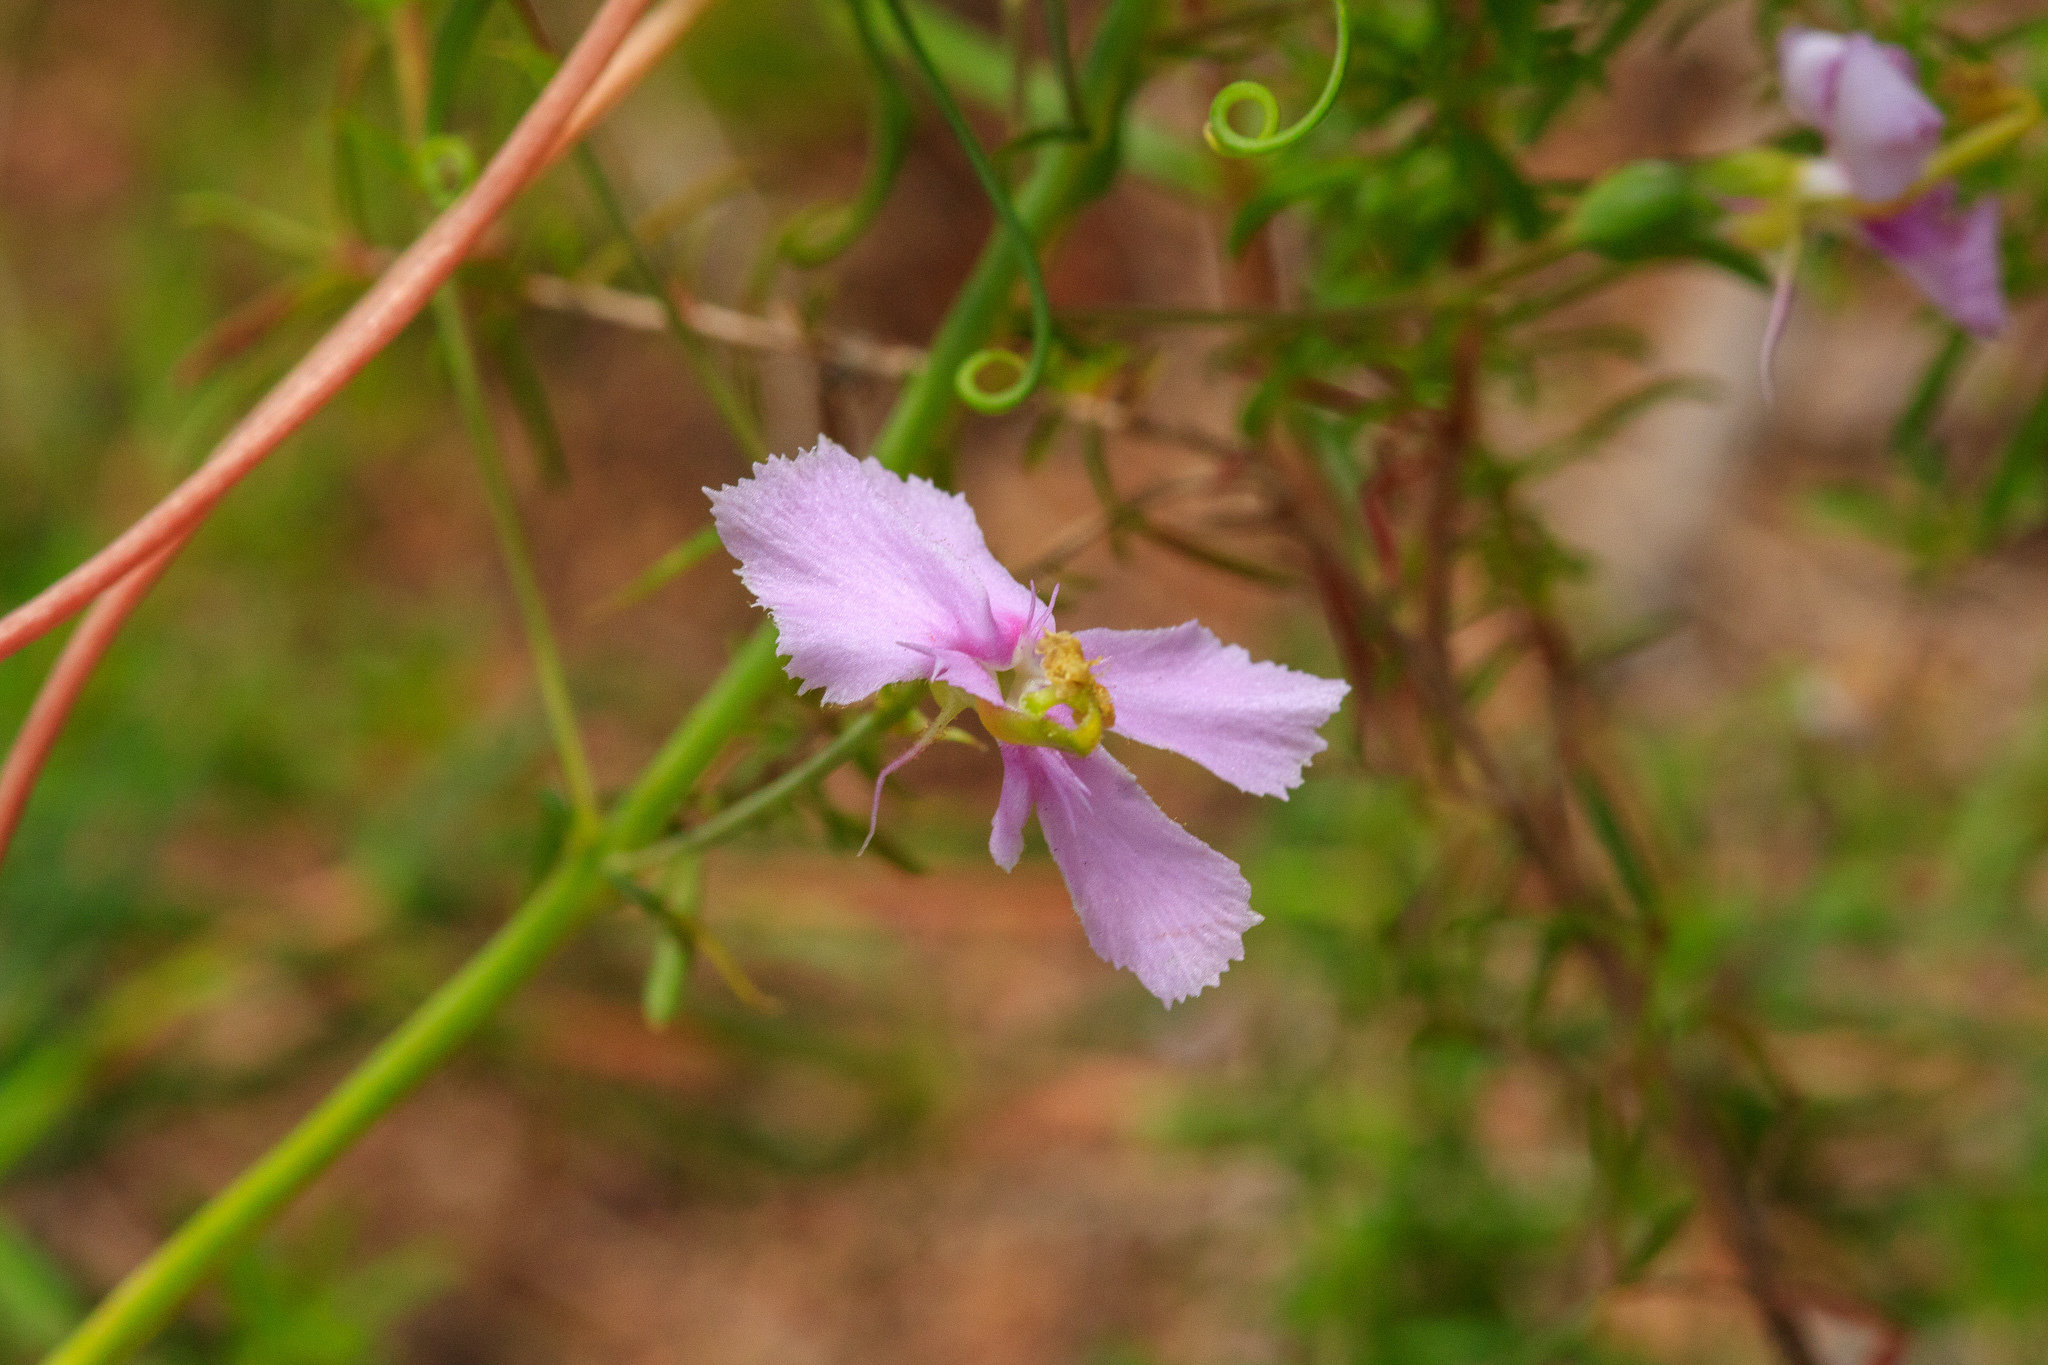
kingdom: Plantae
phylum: Tracheophyta
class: Magnoliopsida
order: Asterales
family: Stylidiaceae
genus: Stylidium
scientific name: Stylidium nymphaeum
